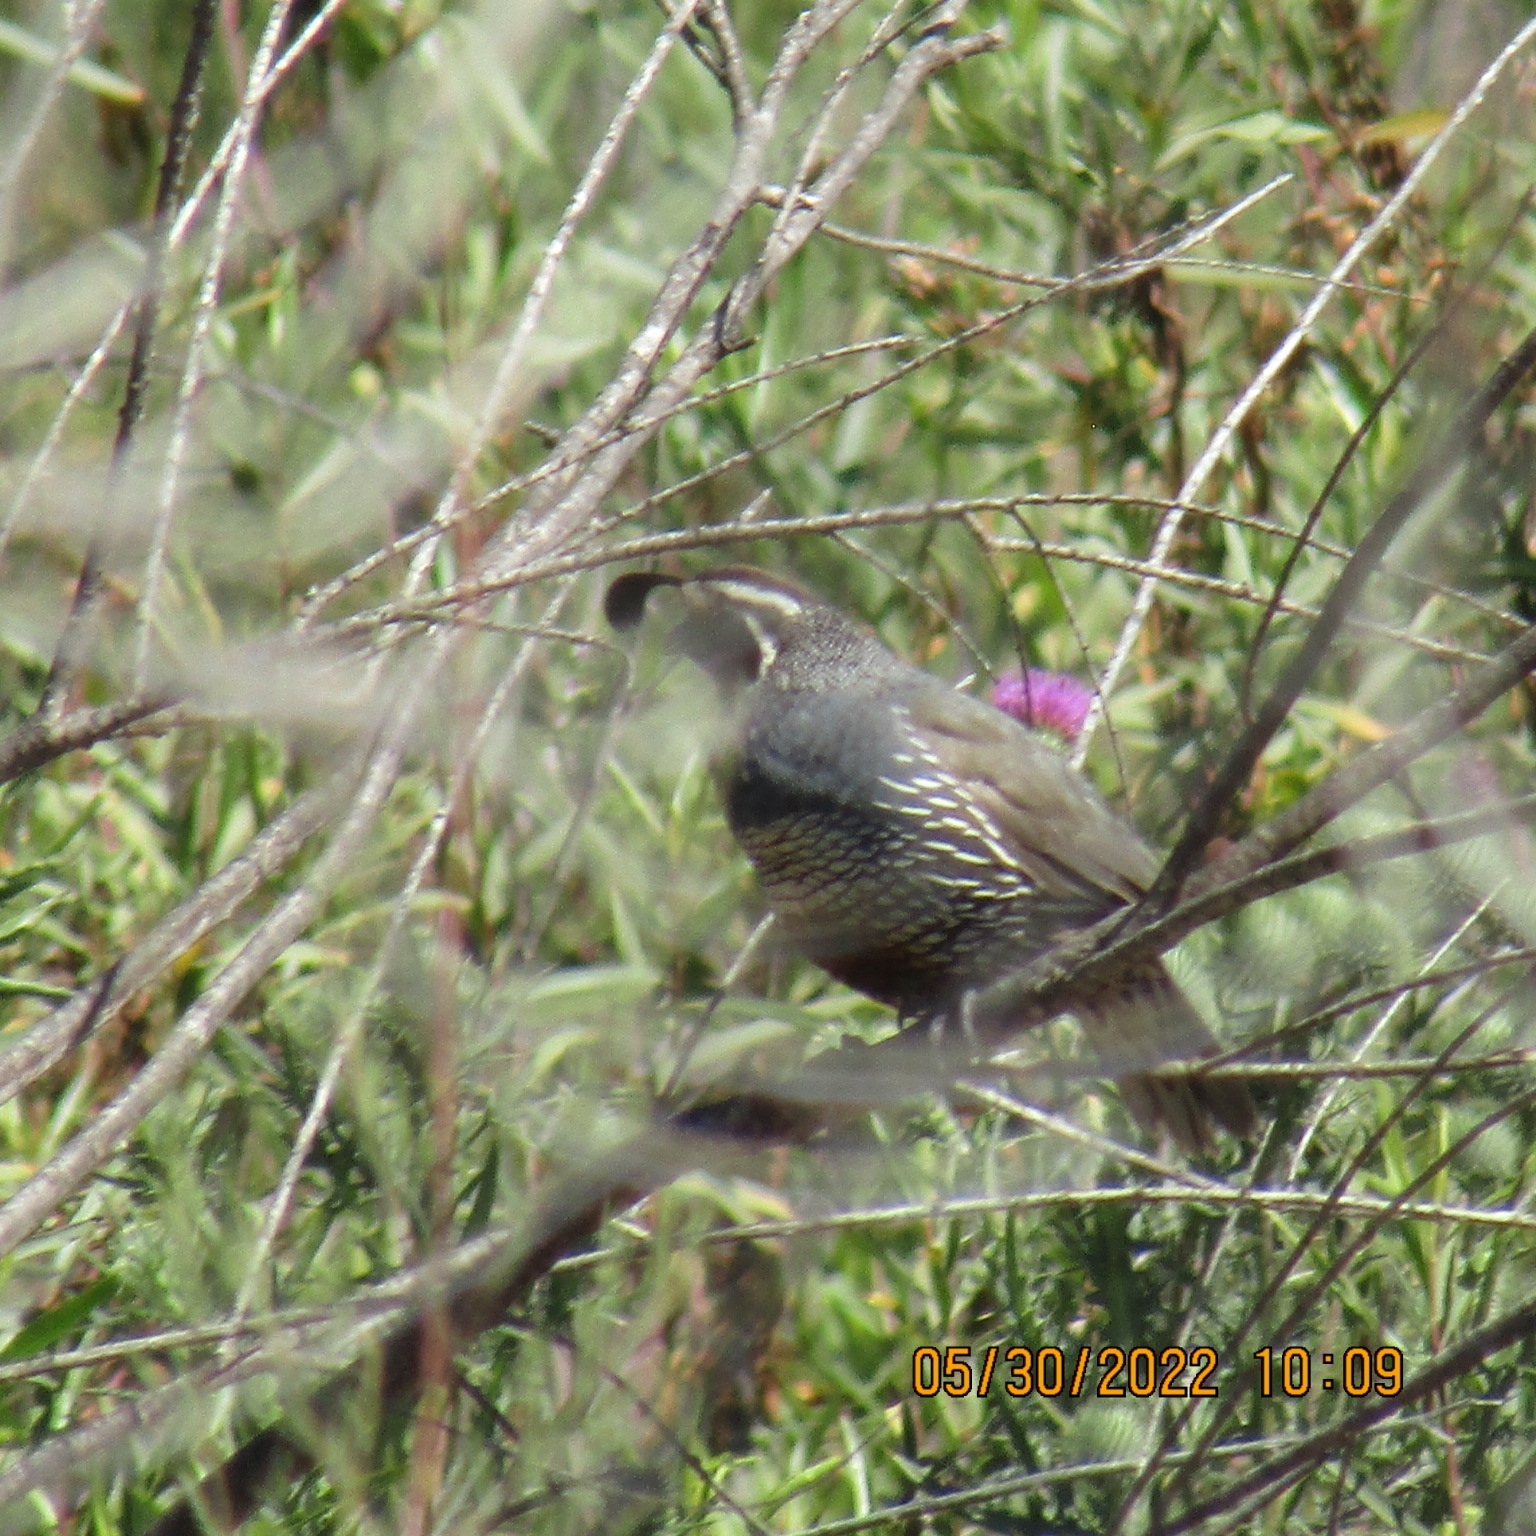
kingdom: Animalia
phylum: Chordata
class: Aves
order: Galliformes
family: Odontophoridae
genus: Callipepla
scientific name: Callipepla californica
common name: California quail
